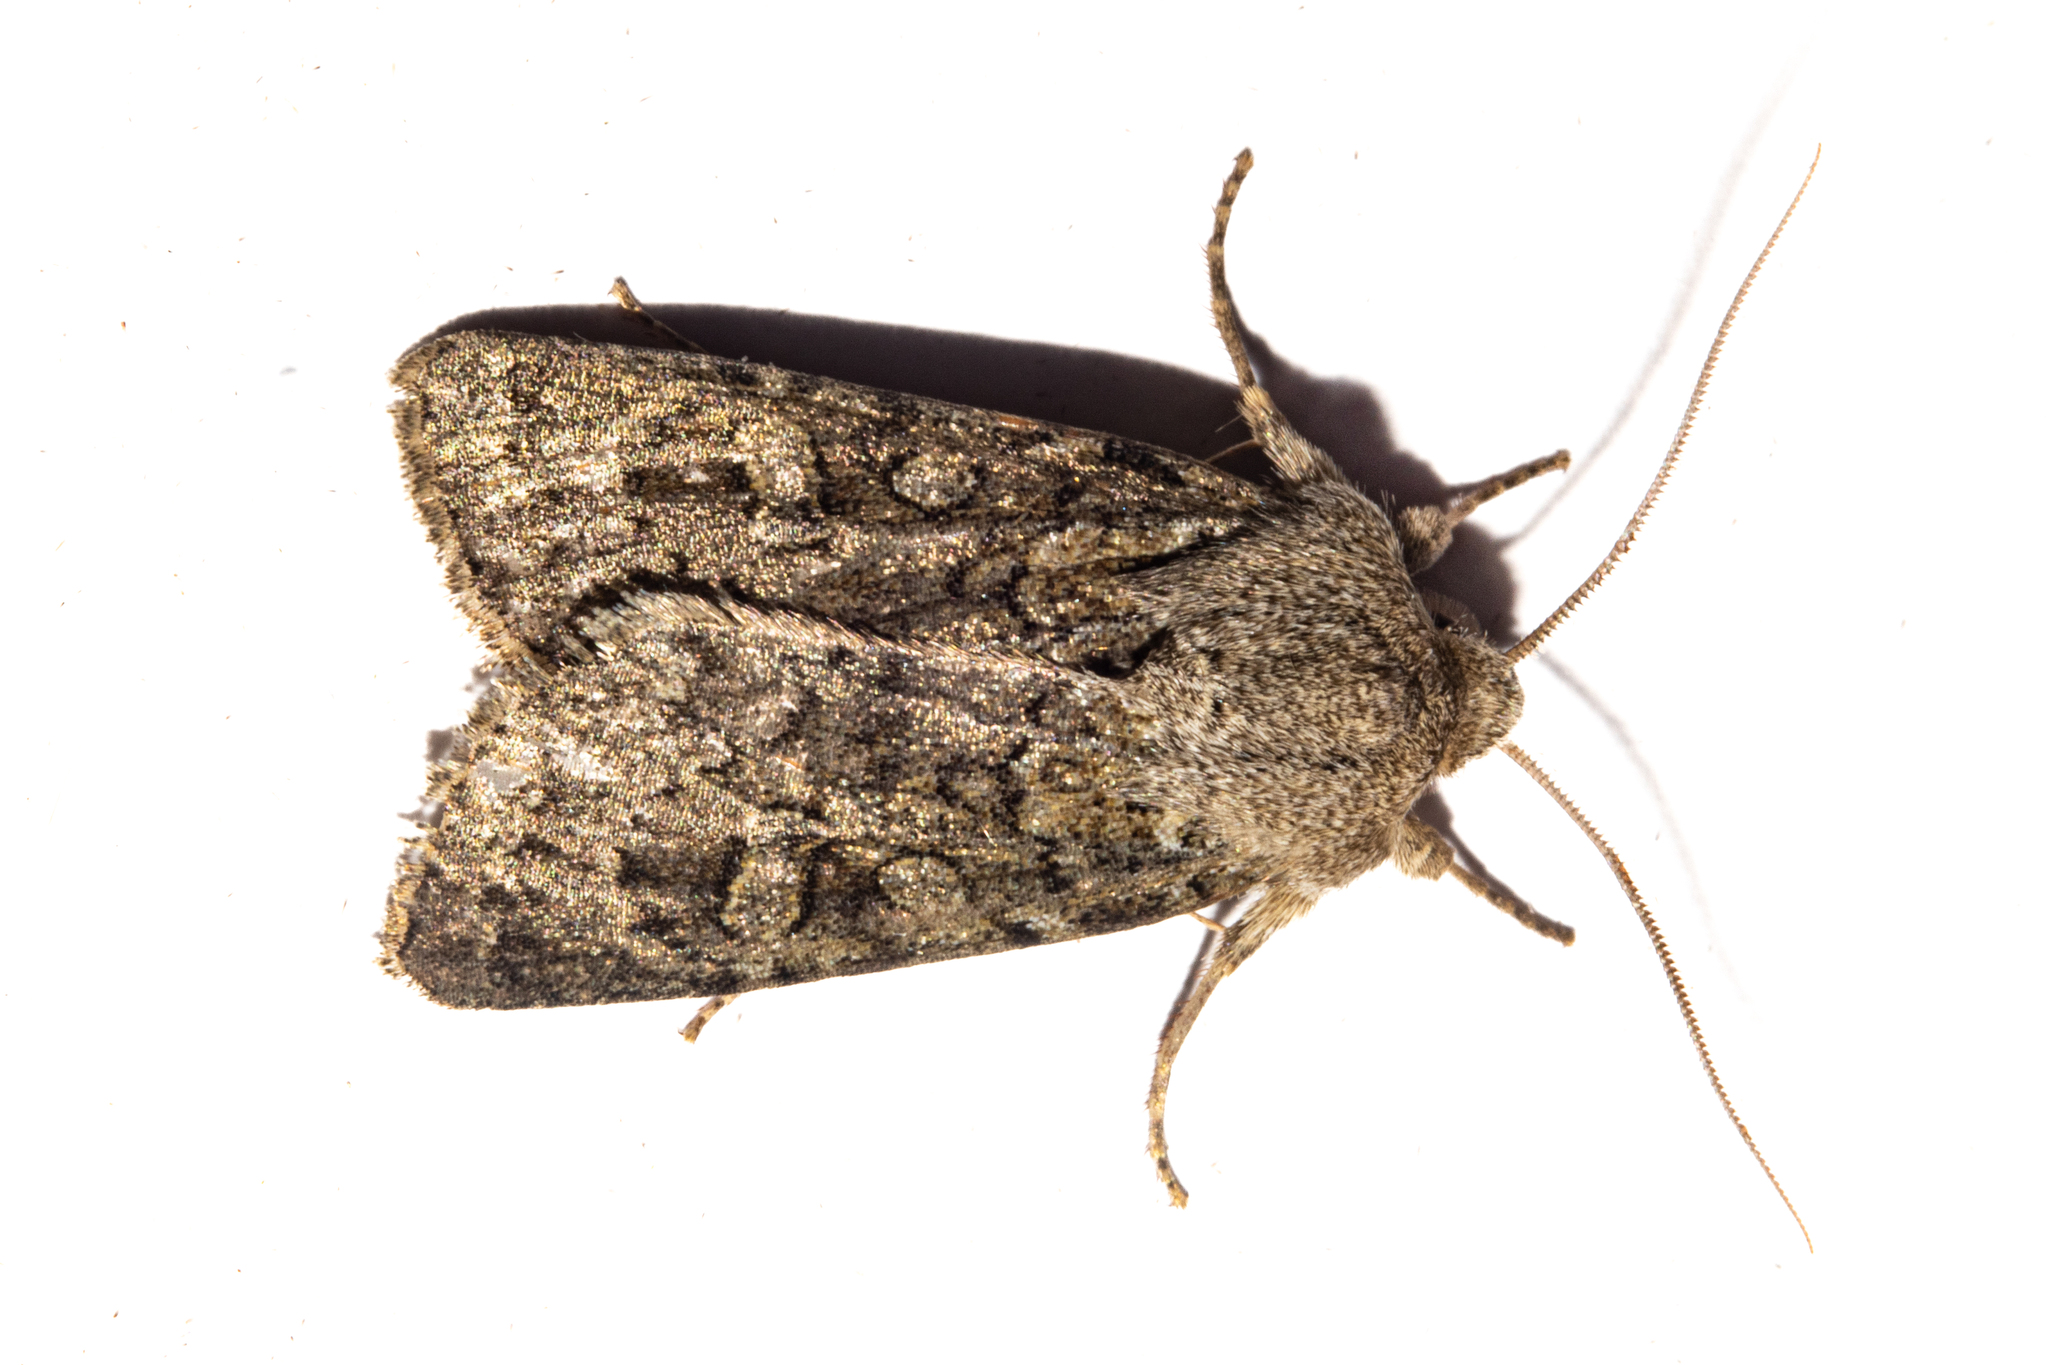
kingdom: Animalia
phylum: Arthropoda
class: Insecta
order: Lepidoptera
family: Noctuidae
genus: Ichneutica
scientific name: Ichneutica
